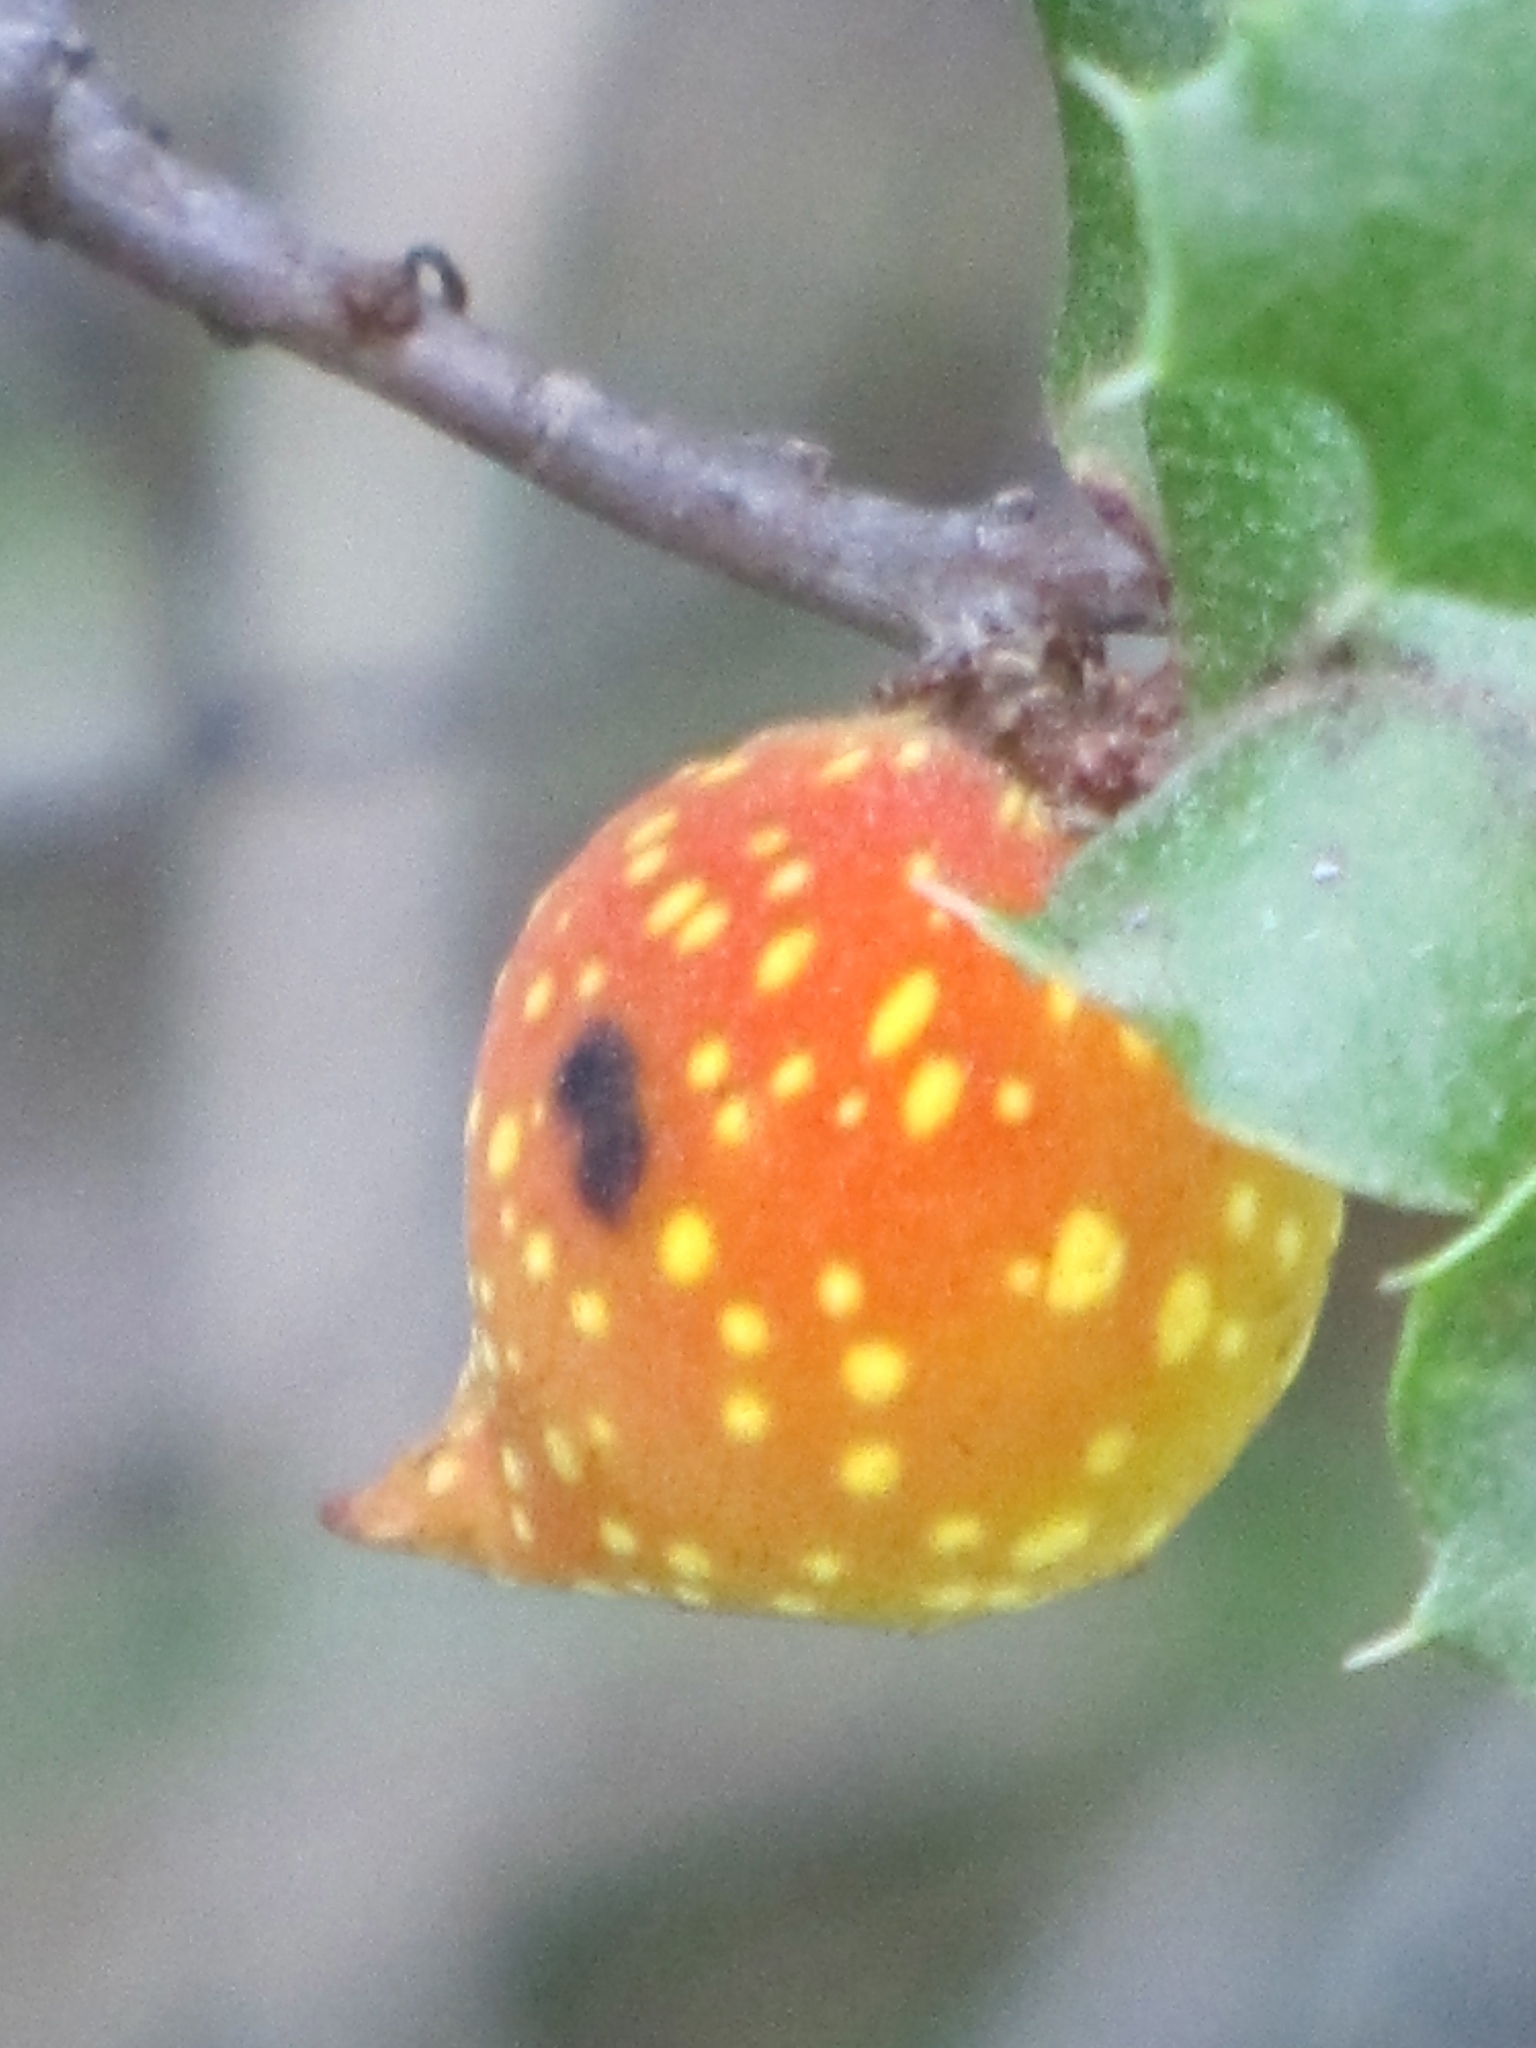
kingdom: Animalia
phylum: Arthropoda
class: Insecta
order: Hymenoptera
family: Cynipidae
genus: Burnettweldia
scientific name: Burnettweldia
